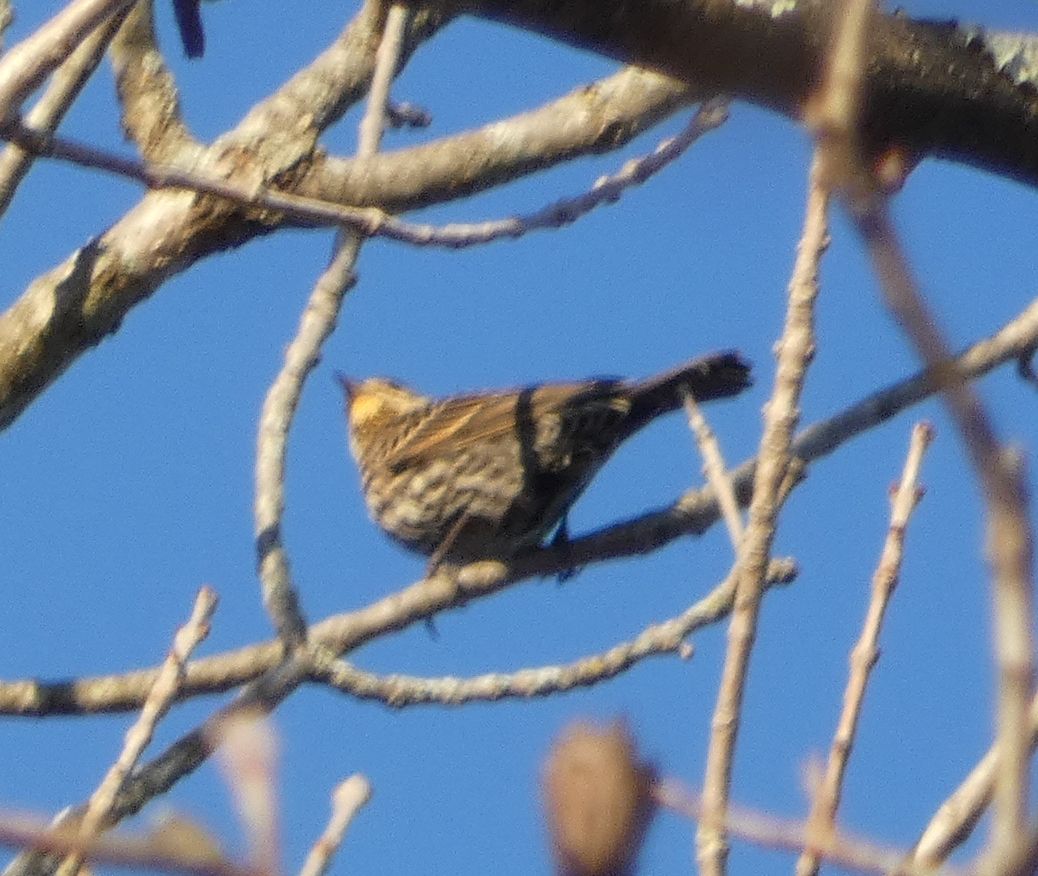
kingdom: Animalia
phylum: Chordata
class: Aves
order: Passeriformes
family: Icteridae
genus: Agelaius
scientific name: Agelaius phoeniceus
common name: Red-winged blackbird
